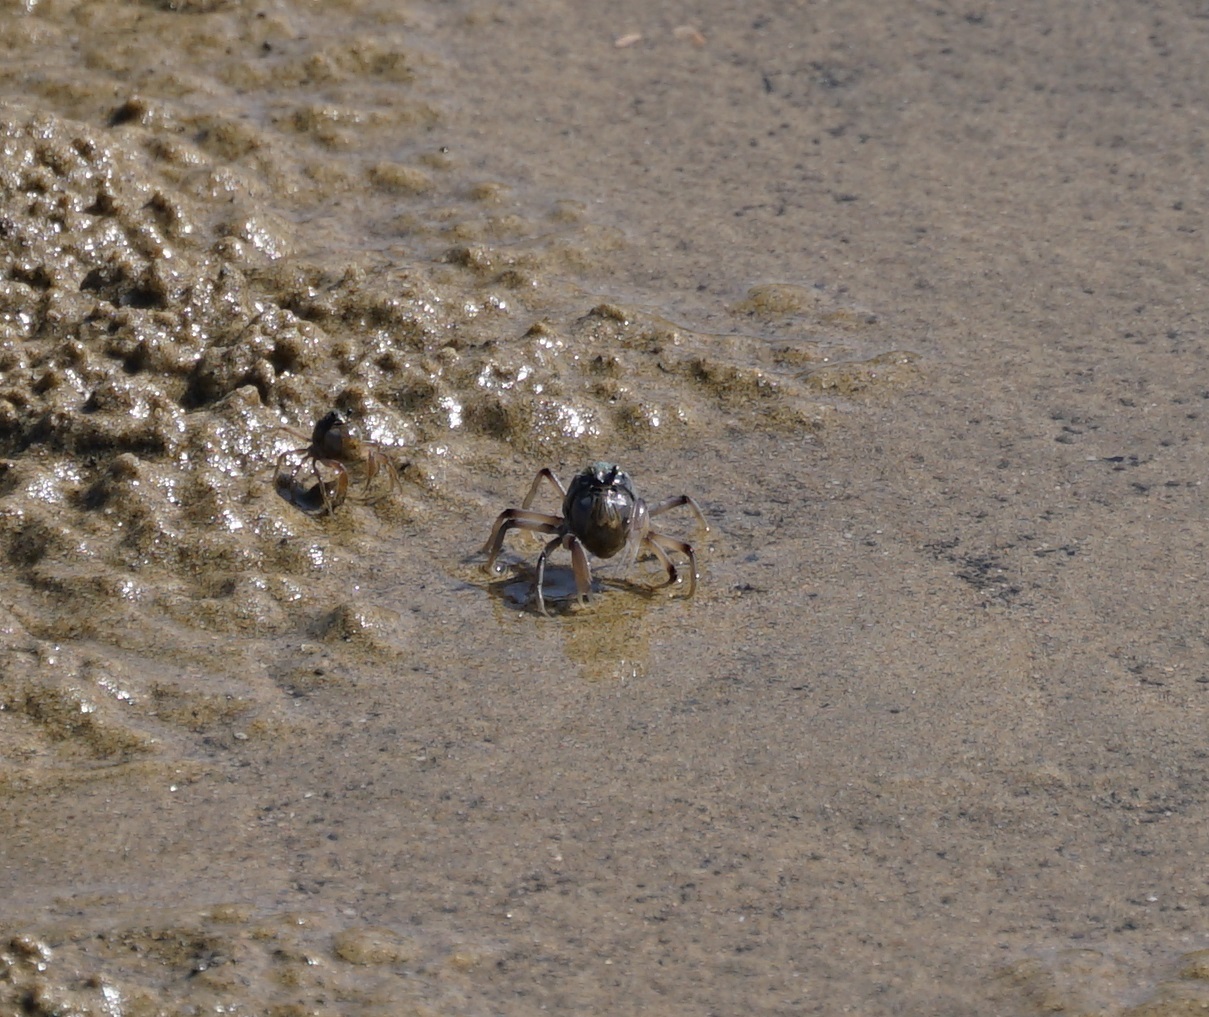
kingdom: Animalia
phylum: Arthropoda
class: Malacostraca
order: Decapoda
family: Mictyridae
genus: Mictyris
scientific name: Mictyris longicarpus
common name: Light-blue soldier crab
